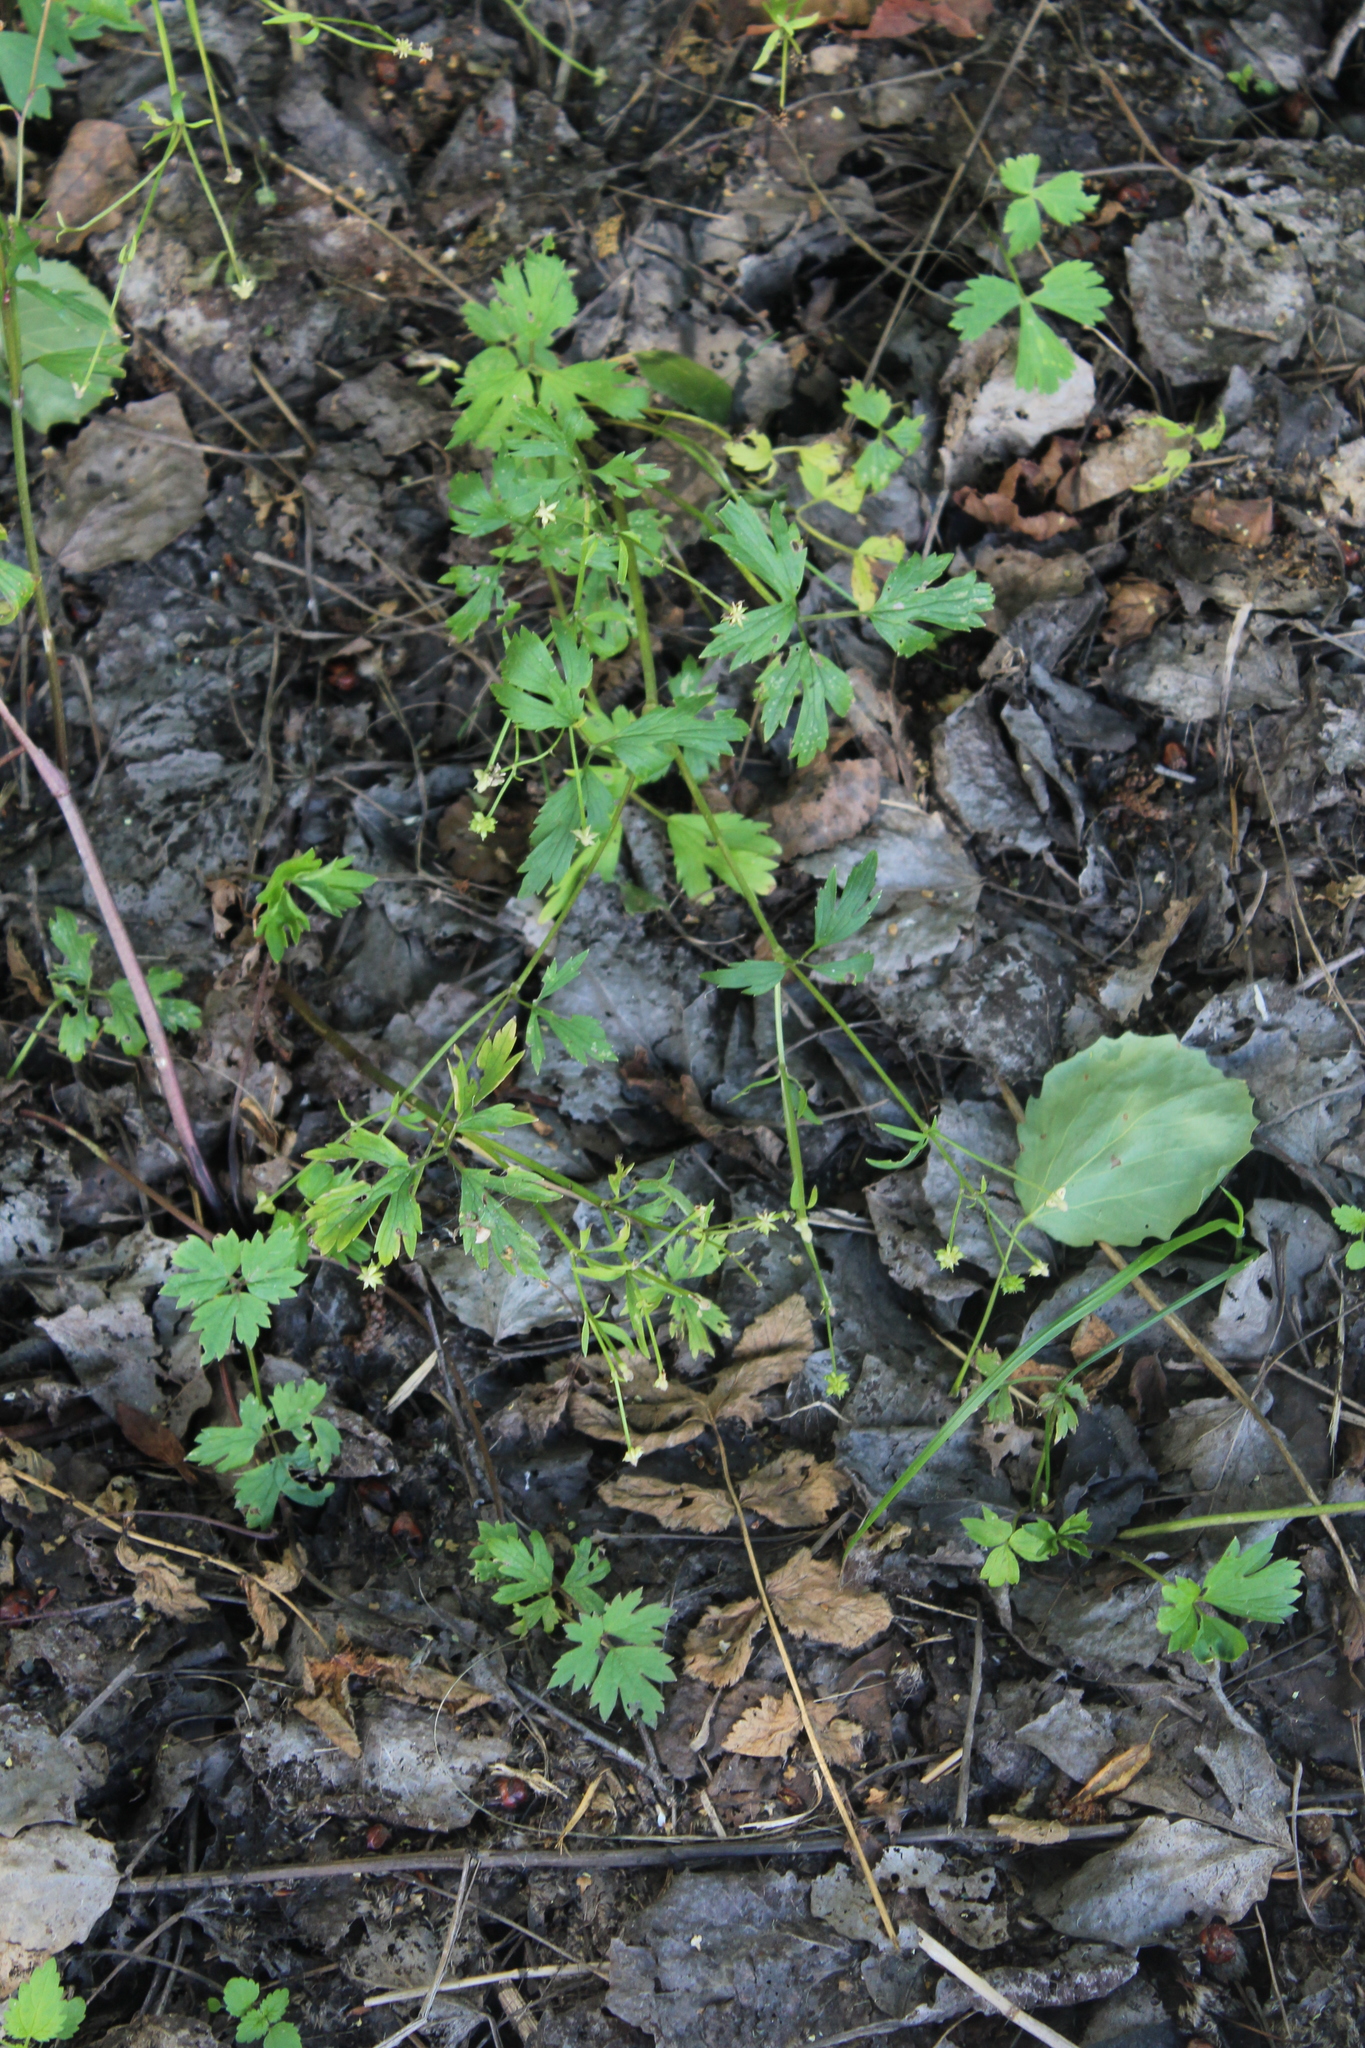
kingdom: Plantae
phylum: Tracheophyta
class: Magnoliopsida
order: Ranunculales
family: Ranunculaceae
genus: Ranunculus
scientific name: Ranunculus repens
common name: Creeping buttercup
